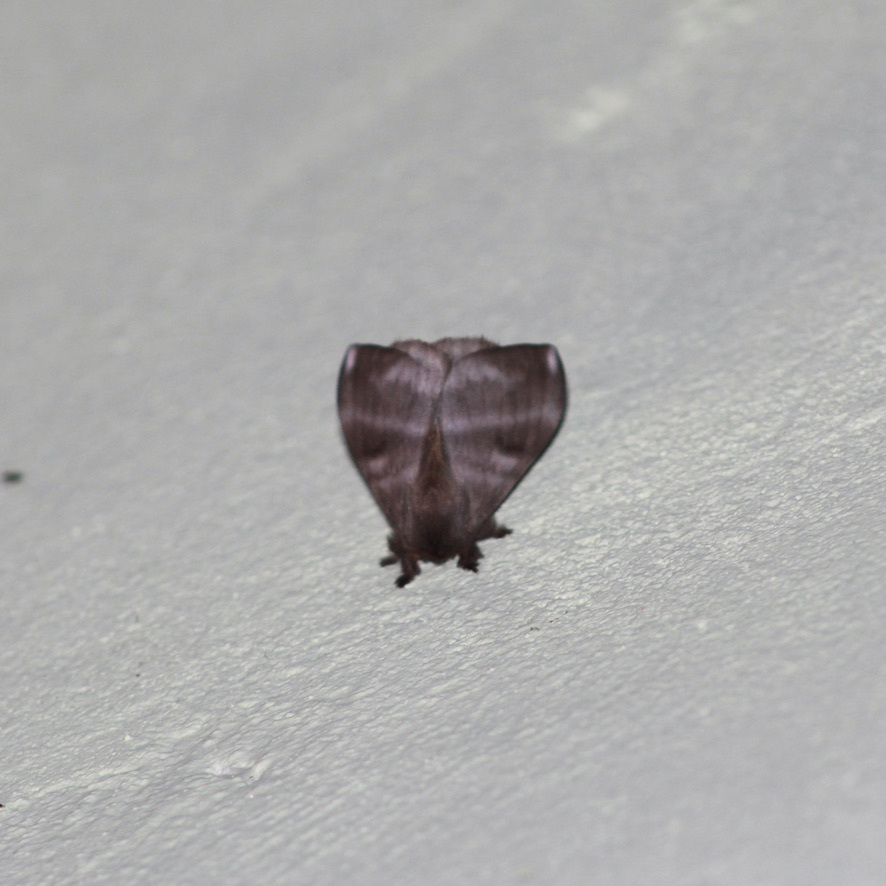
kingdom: Animalia
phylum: Arthropoda
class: Insecta
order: Lepidoptera
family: Saturniidae
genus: Hylesia
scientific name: Hylesia metabus
